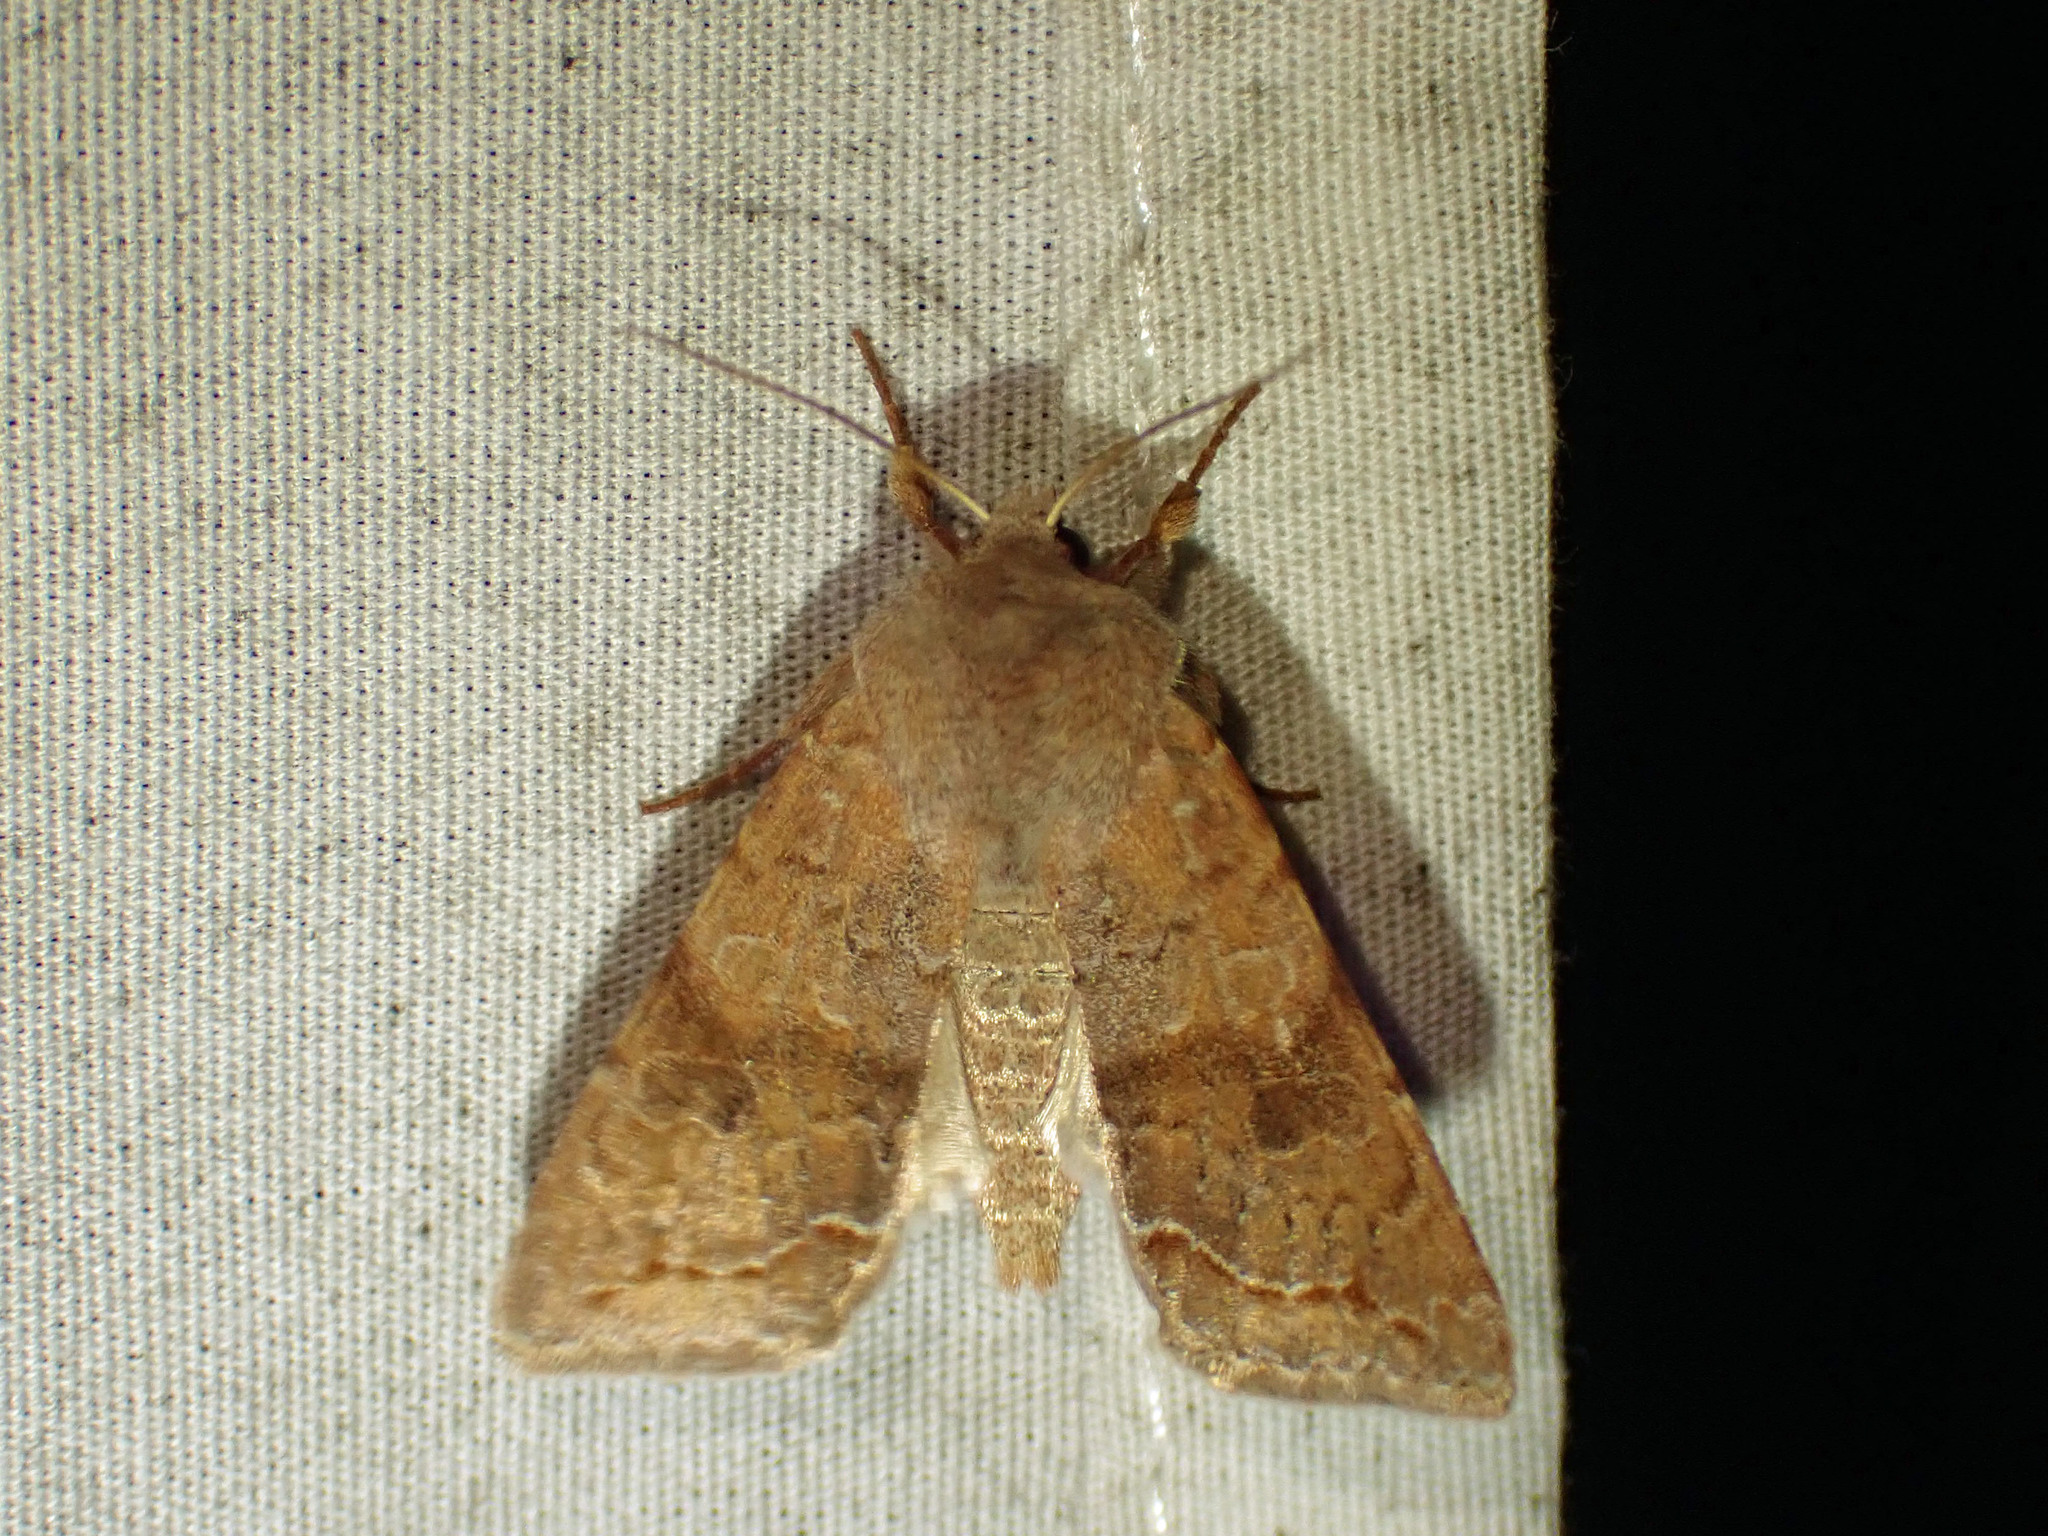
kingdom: Animalia
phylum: Arthropoda
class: Insecta
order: Lepidoptera
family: Noctuidae
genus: Orthosia
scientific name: Orthosia revicta
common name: Rusty whitesided caterpillar
